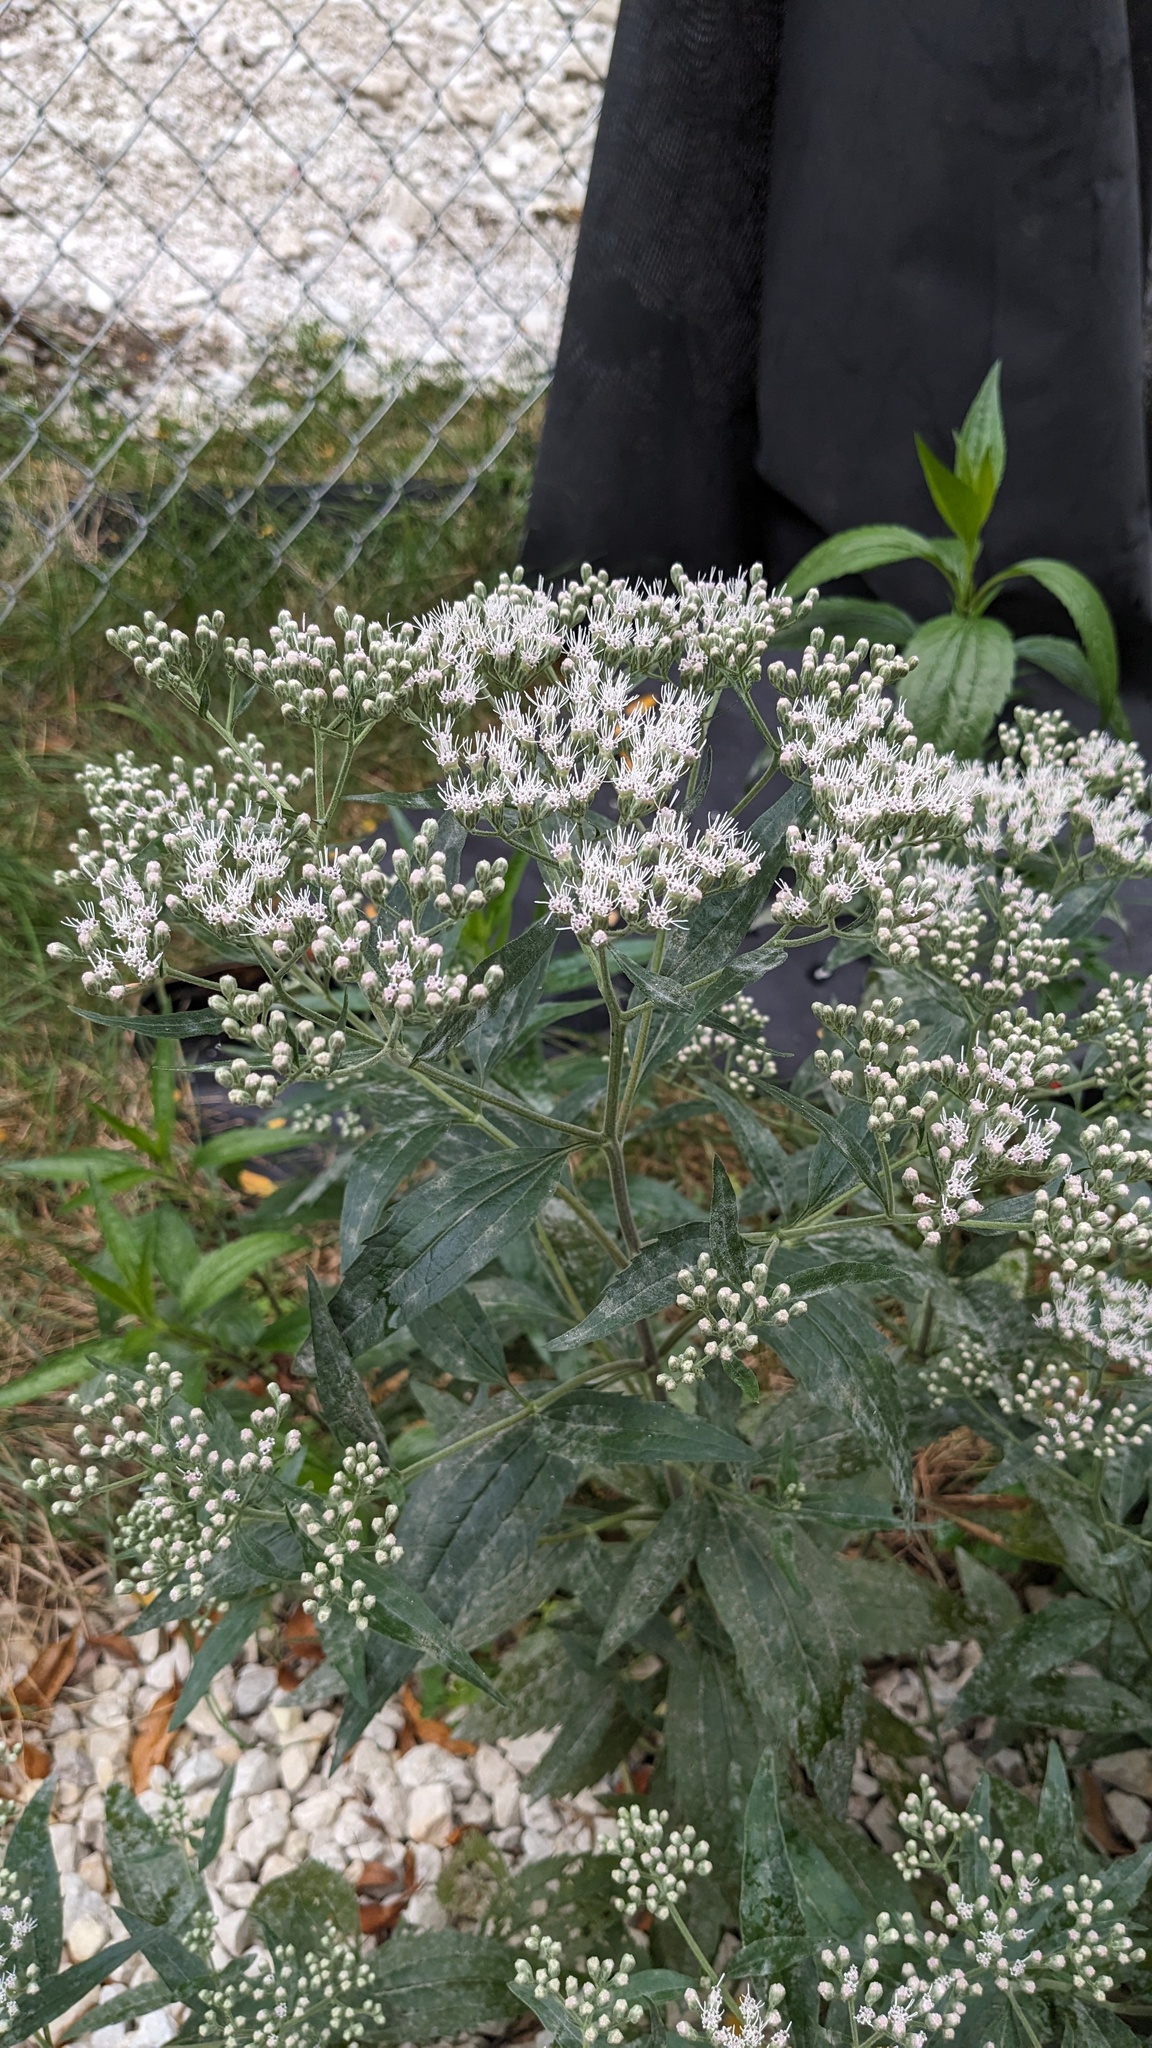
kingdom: Plantae
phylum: Tracheophyta
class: Magnoliopsida
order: Asterales
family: Asteraceae
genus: Eupatorium
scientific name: Eupatorium serotinum
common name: Late boneset
